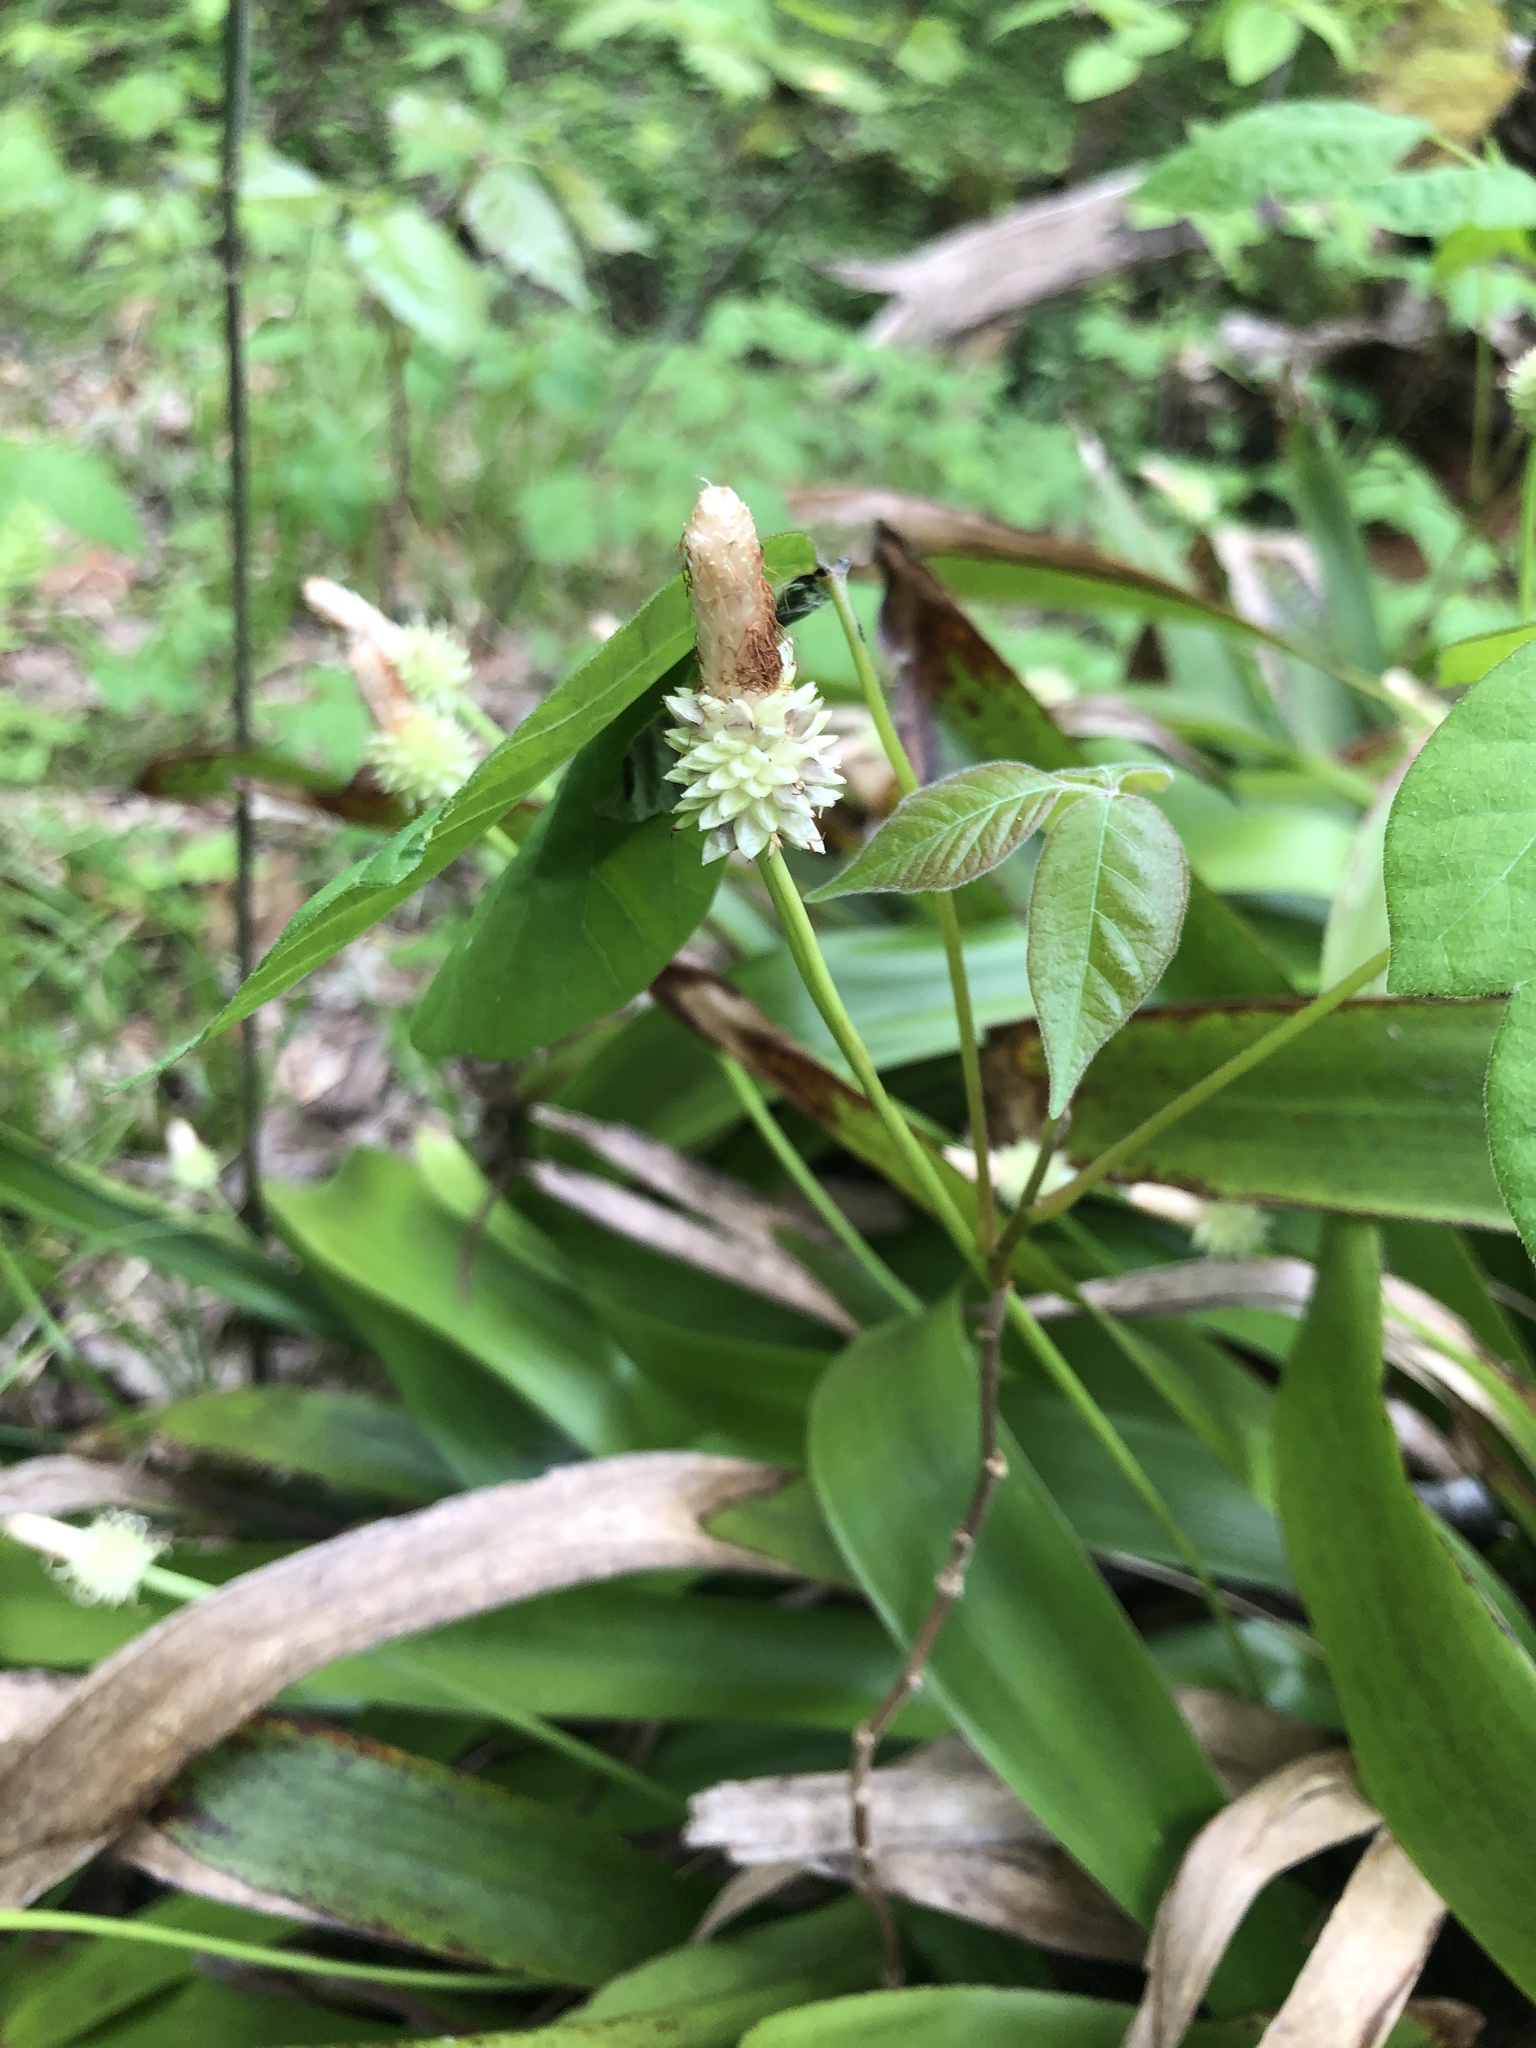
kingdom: Plantae
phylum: Tracheophyta
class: Liliopsida
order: Poales
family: Cyperaceae
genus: Carex
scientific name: Carex fraseriana
